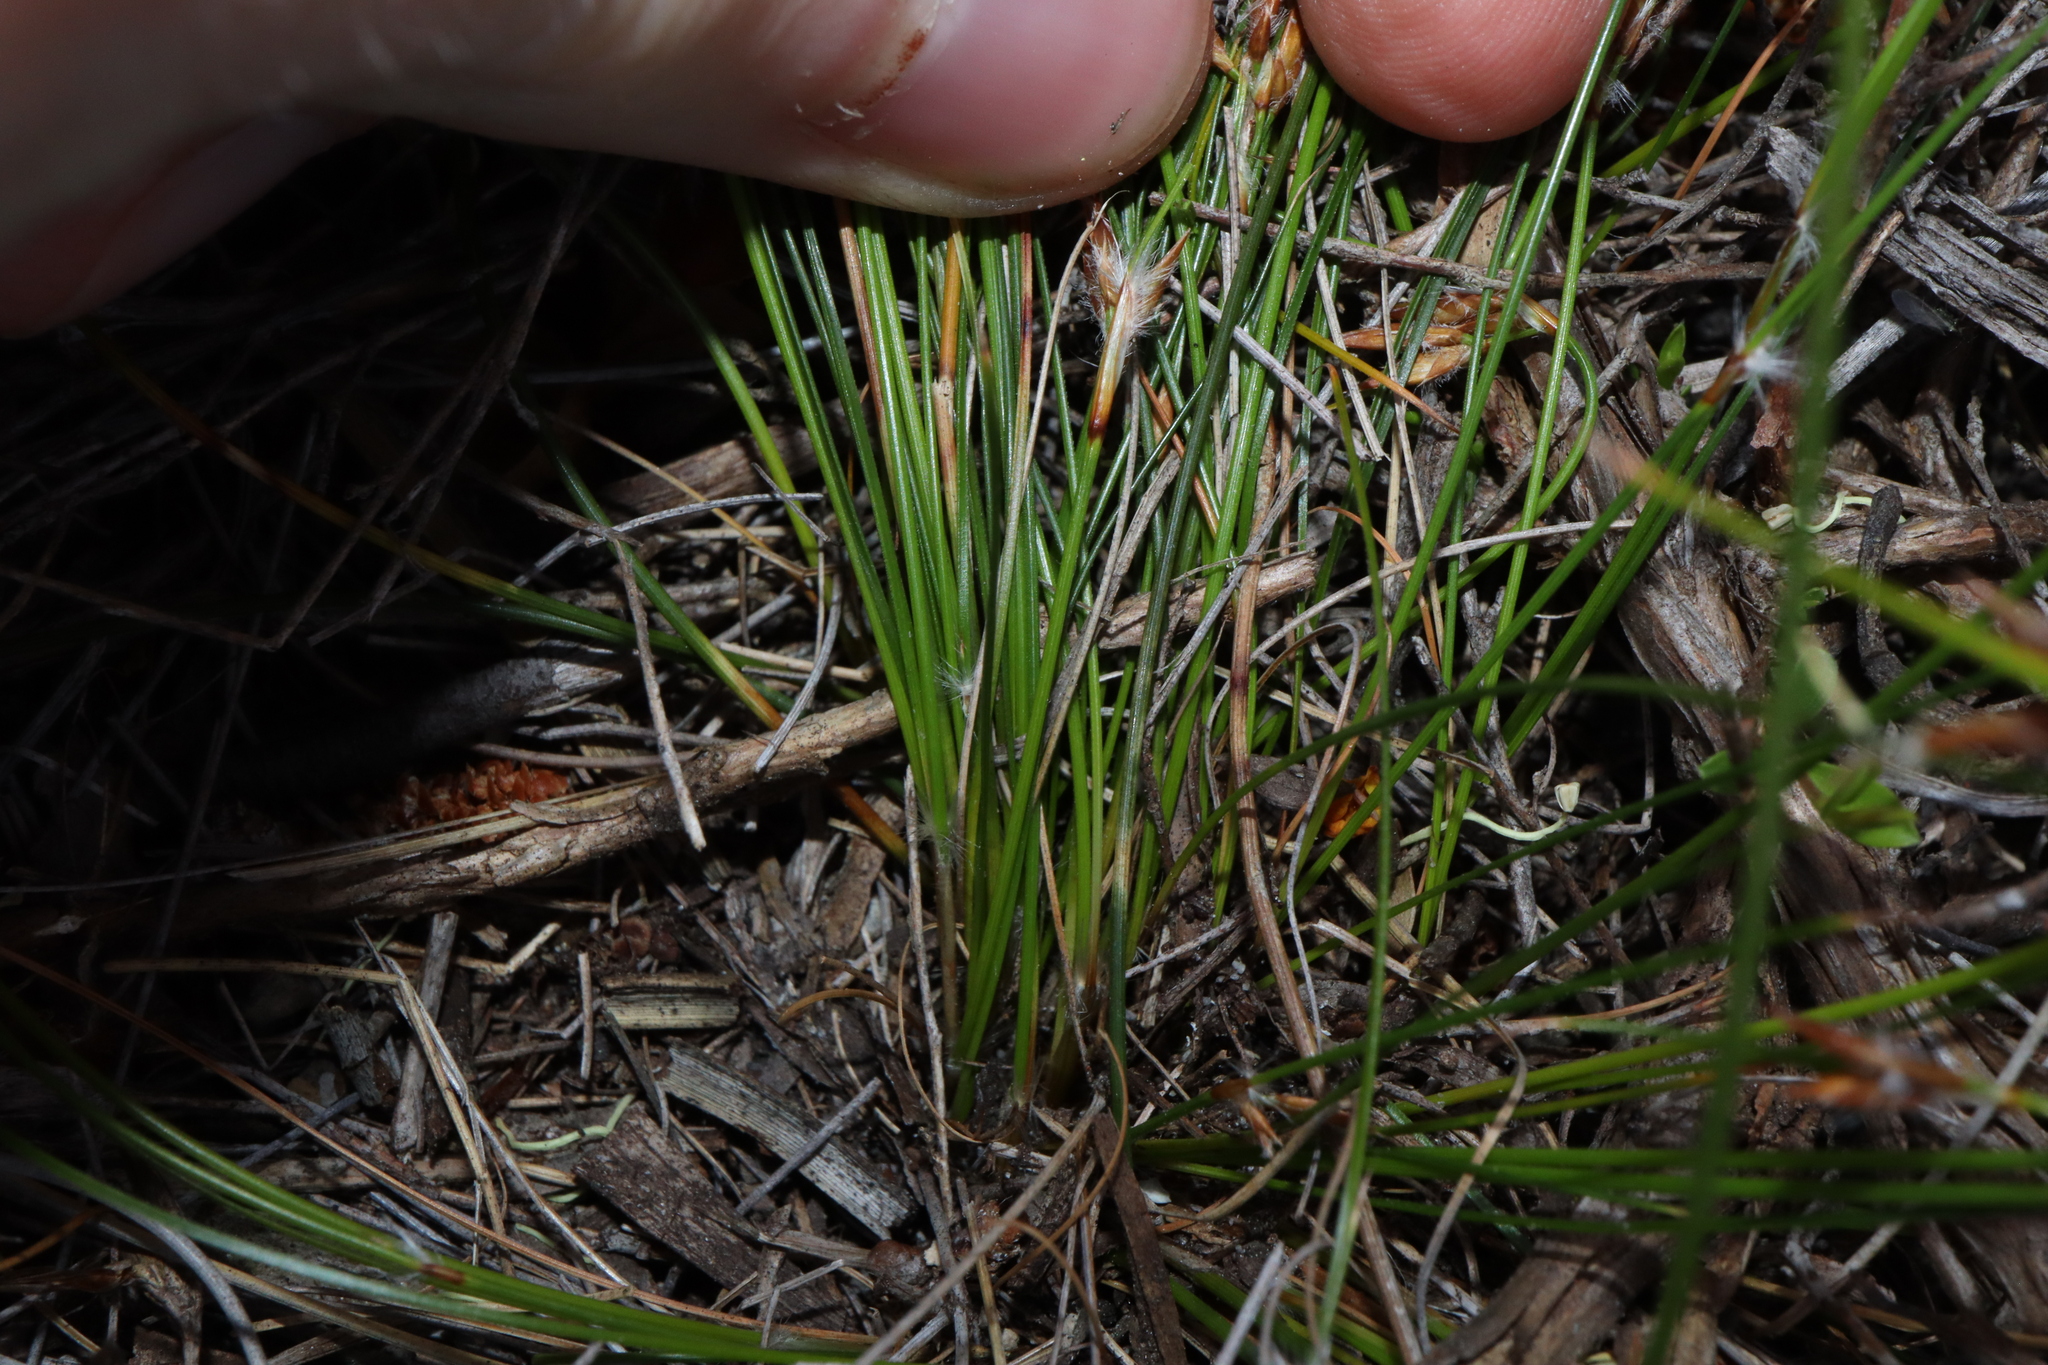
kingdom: Plantae
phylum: Tracheophyta
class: Liliopsida
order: Poales
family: Cyperaceae
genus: Schoenus
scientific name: Schoenus subflavus
